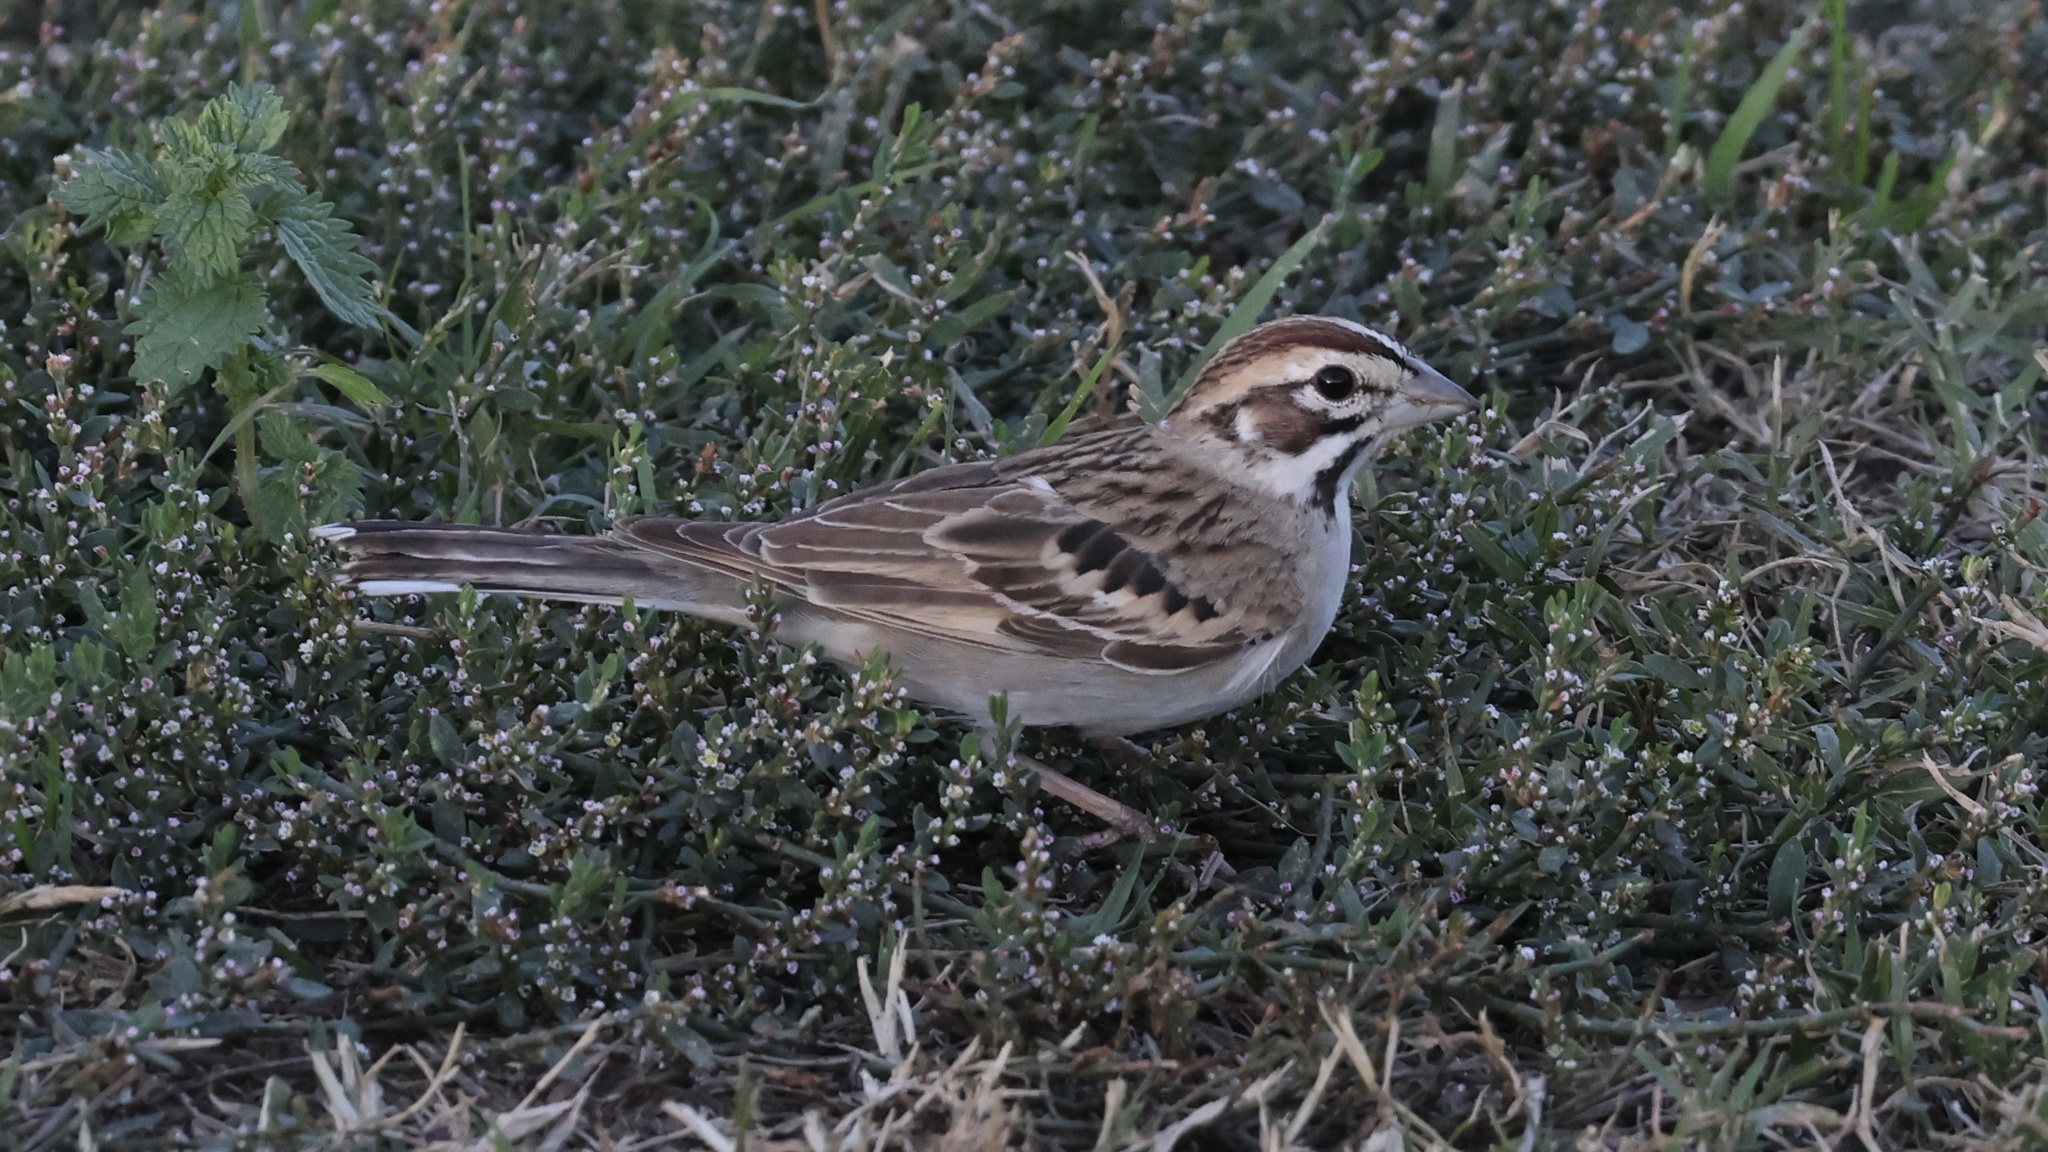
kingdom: Animalia
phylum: Chordata
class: Aves
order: Passeriformes
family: Passerellidae
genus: Chondestes
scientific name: Chondestes grammacus
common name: Lark sparrow
